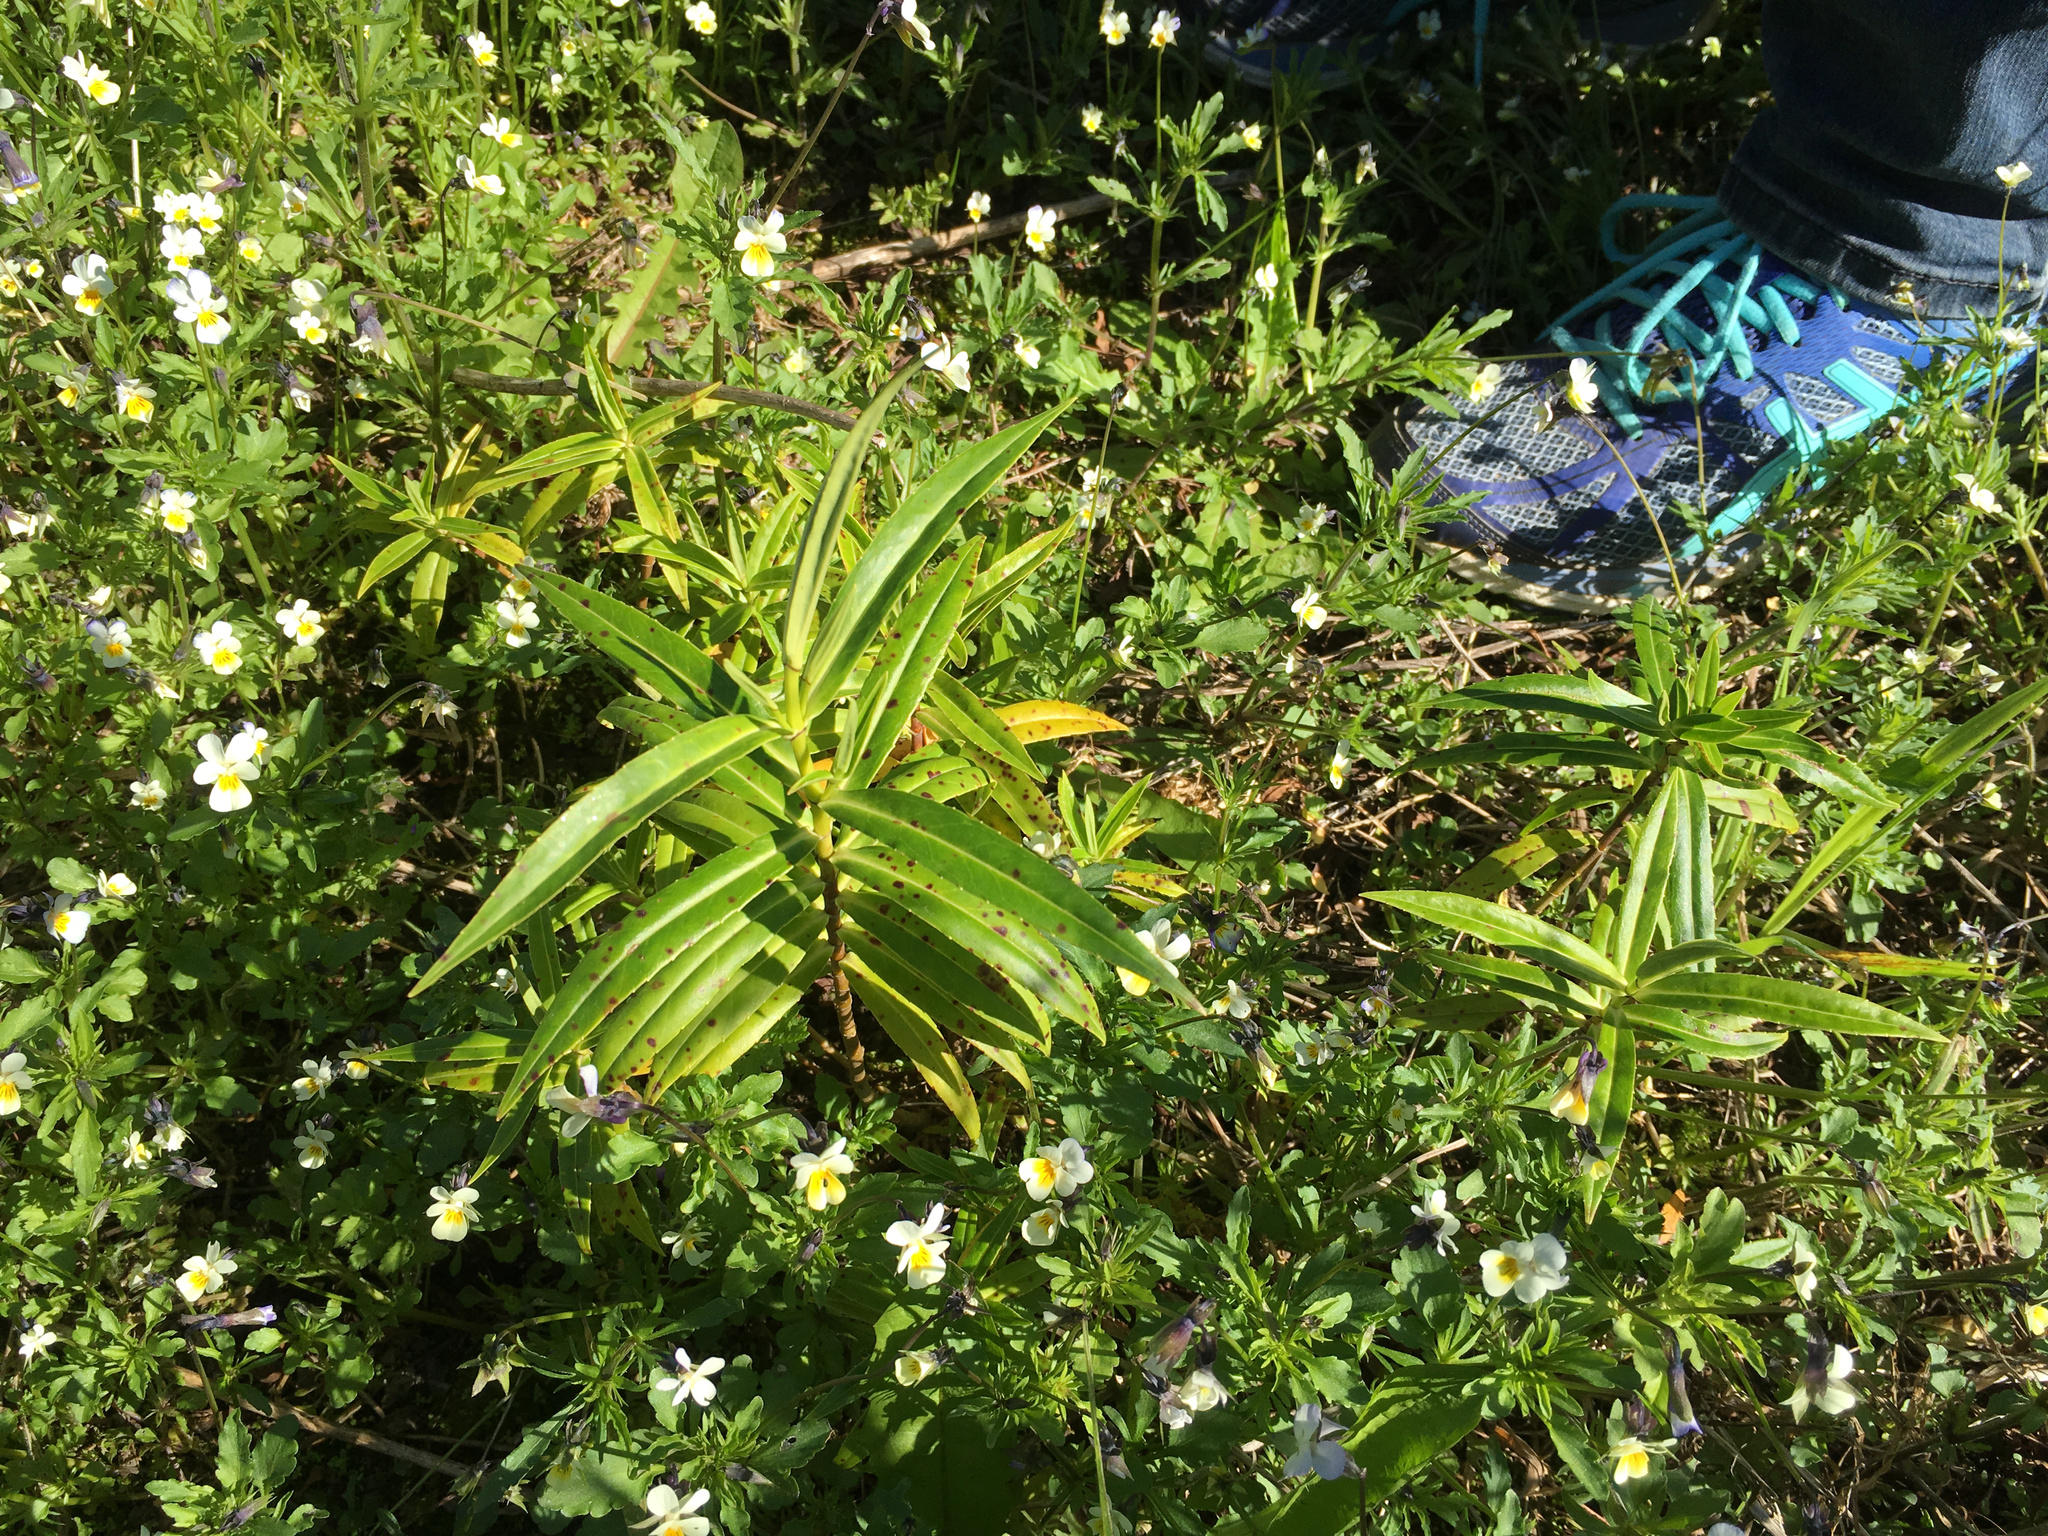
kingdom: Plantae
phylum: Tracheophyta
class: Magnoliopsida
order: Lamiales
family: Plantaginaceae
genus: Veronica
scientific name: Veronica salicifolia
